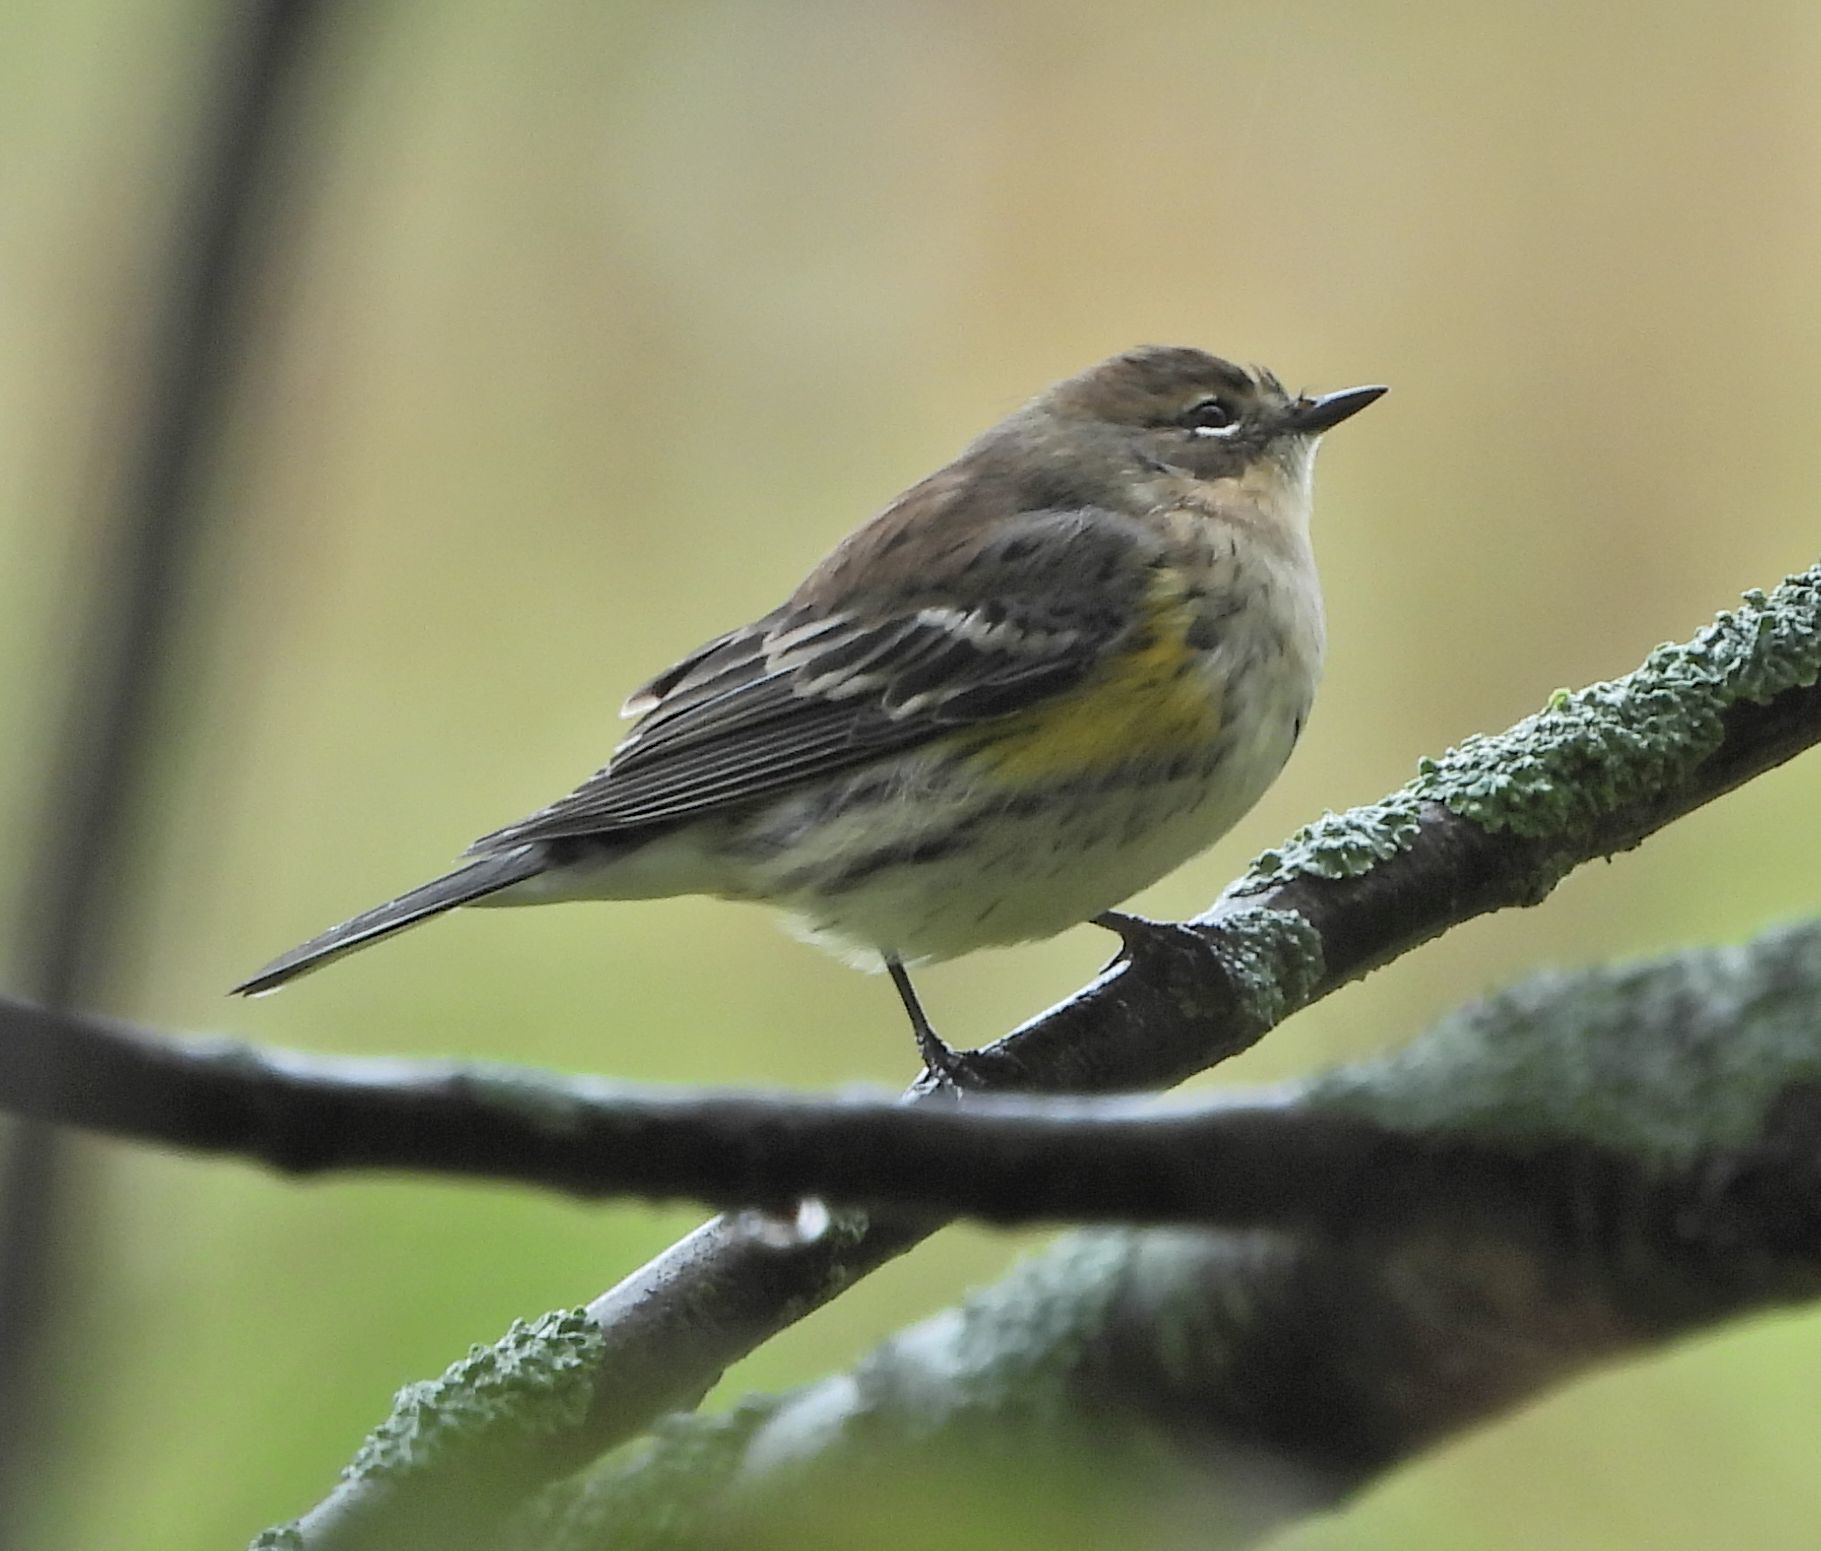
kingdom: Animalia
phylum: Chordata
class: Aves
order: Passeriformes
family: Parulidae
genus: Setophaga
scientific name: Setophaga coronata
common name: Myrtle warbler
